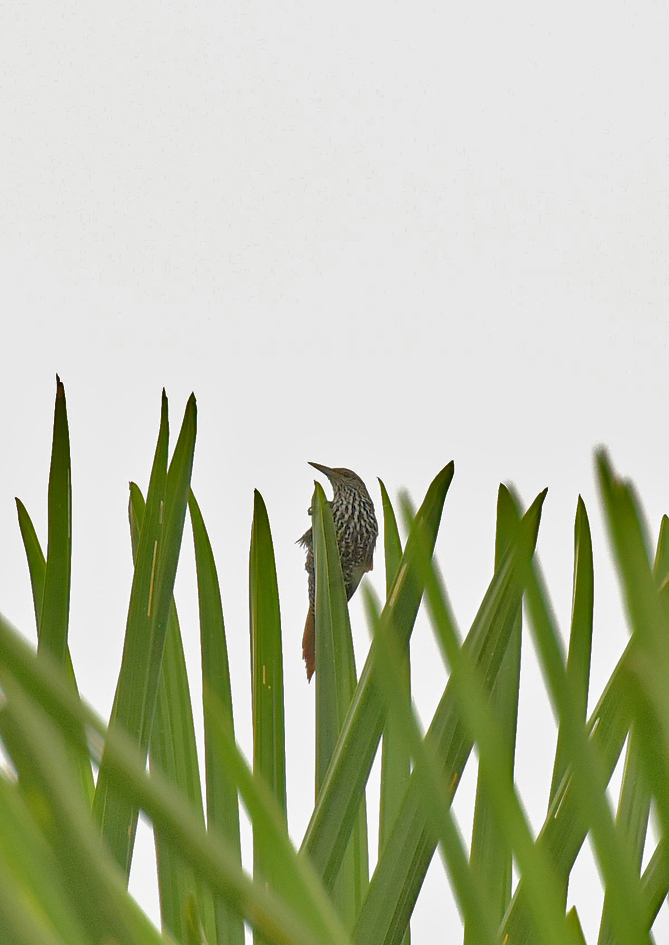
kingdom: Animalia
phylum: Chordata
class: Aves
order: Passeriformes
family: Furnariidae
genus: Berlepschia
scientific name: Berlepschia rikeri
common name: Point-tailed palmcreeper
